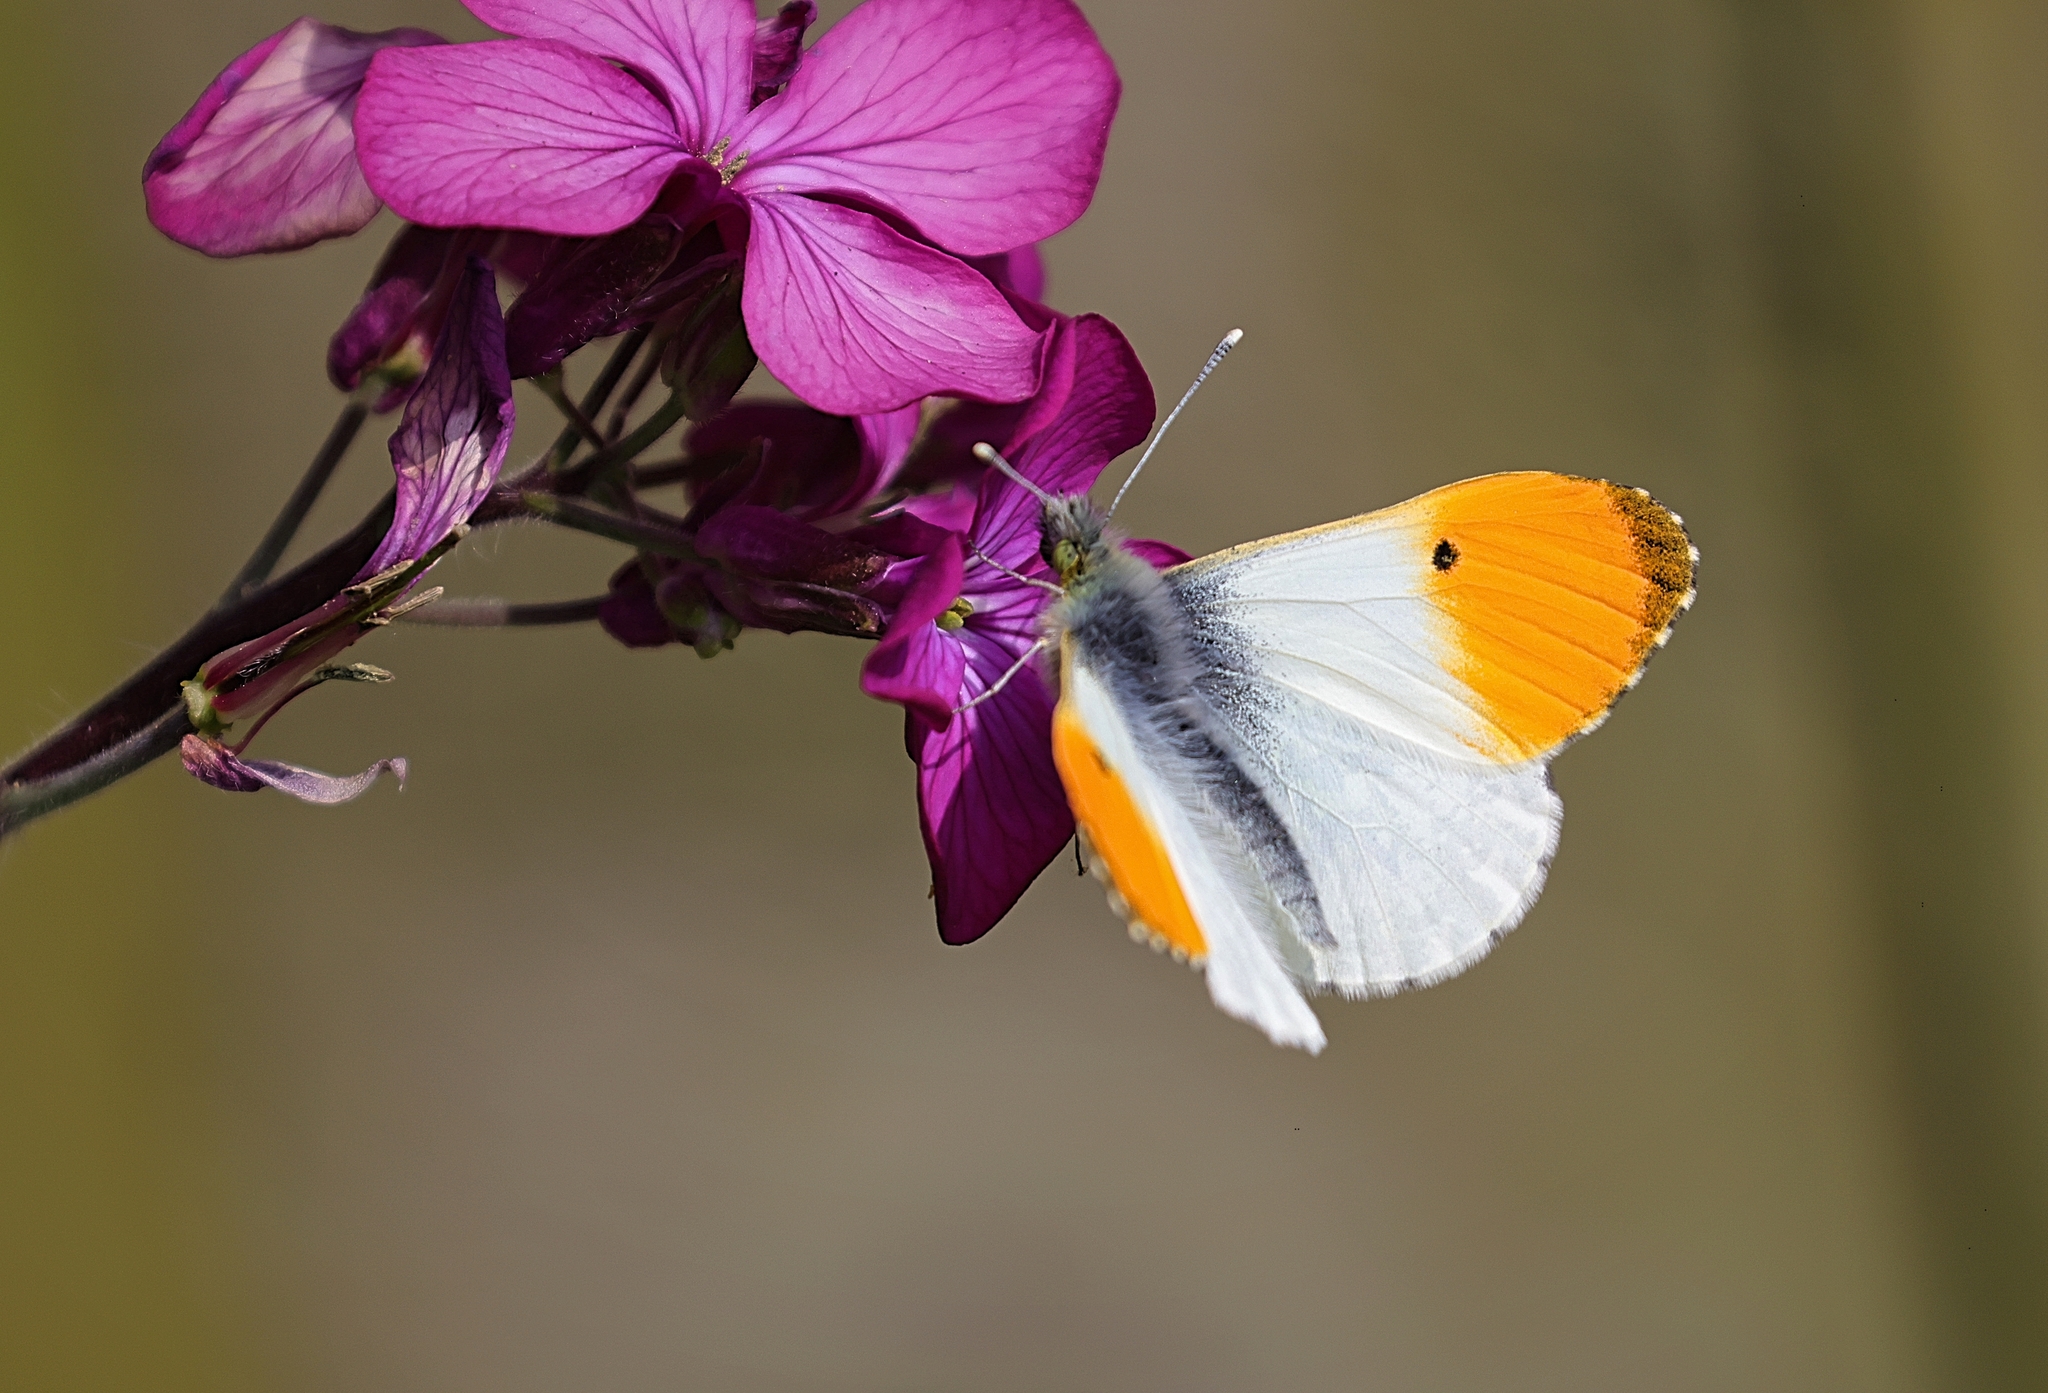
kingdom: Animalia
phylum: Arthropoda
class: Insecta
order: Lepidoptera
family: Pieridae
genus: Anthocharis
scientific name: Anthocharis cardamines
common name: Orange-tip
